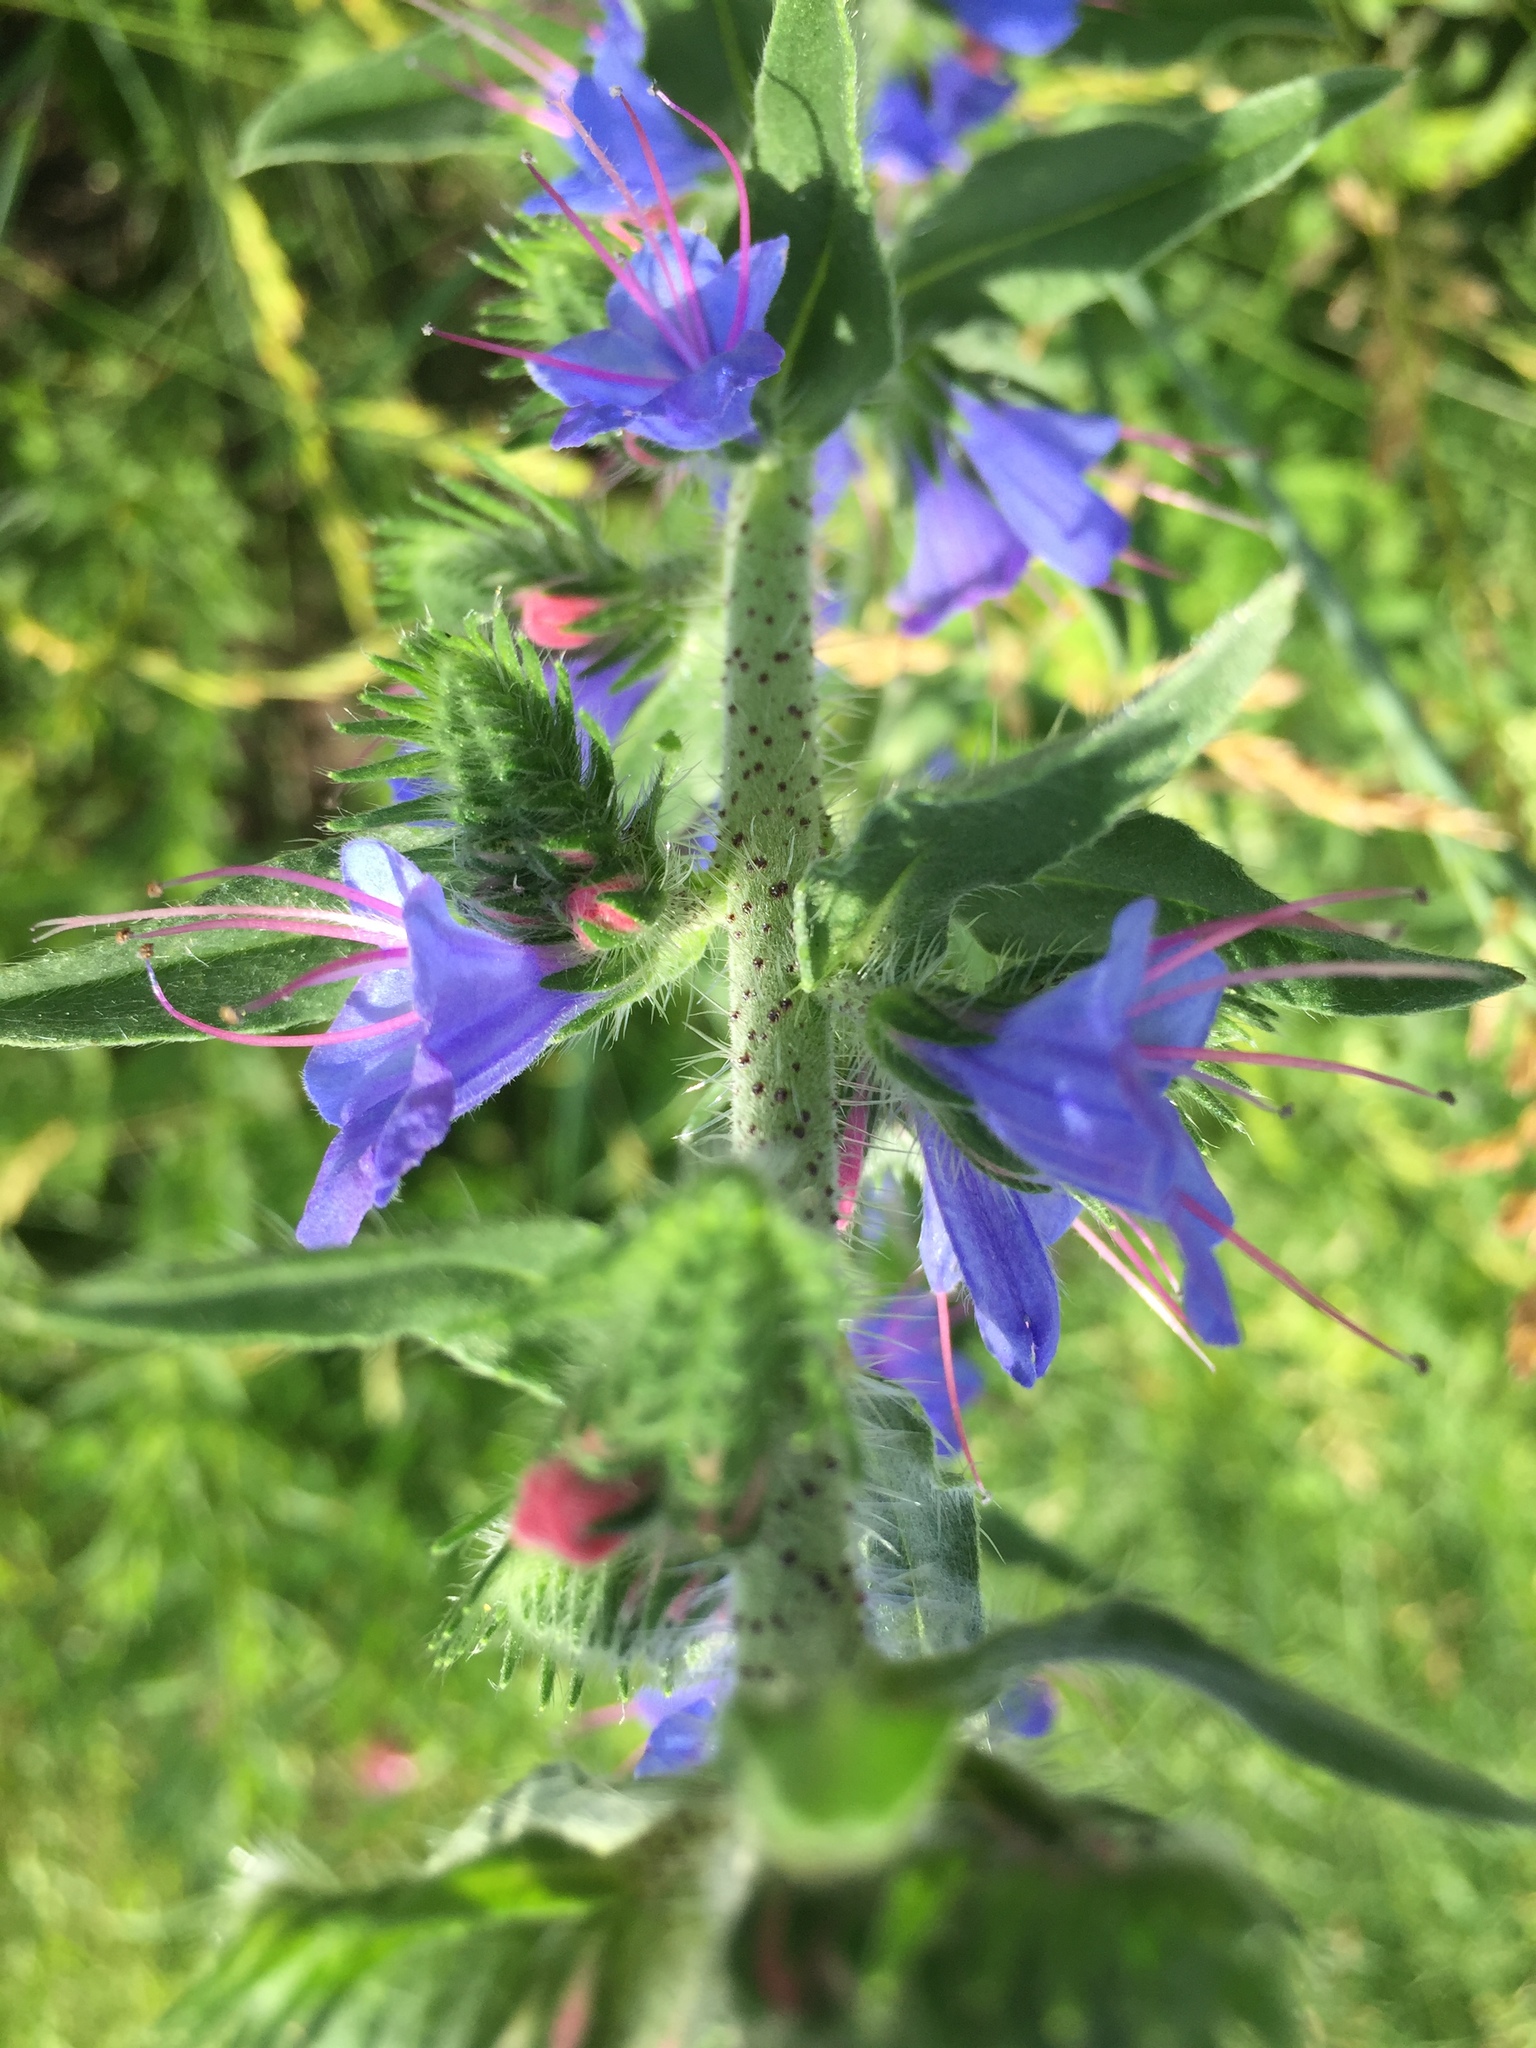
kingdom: Plantae
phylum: Tracheophyta
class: Magnoliopsida
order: Boraginales
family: Boraginaceae
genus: Echium
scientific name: Echium vulgare
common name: Common viper's bugloss
